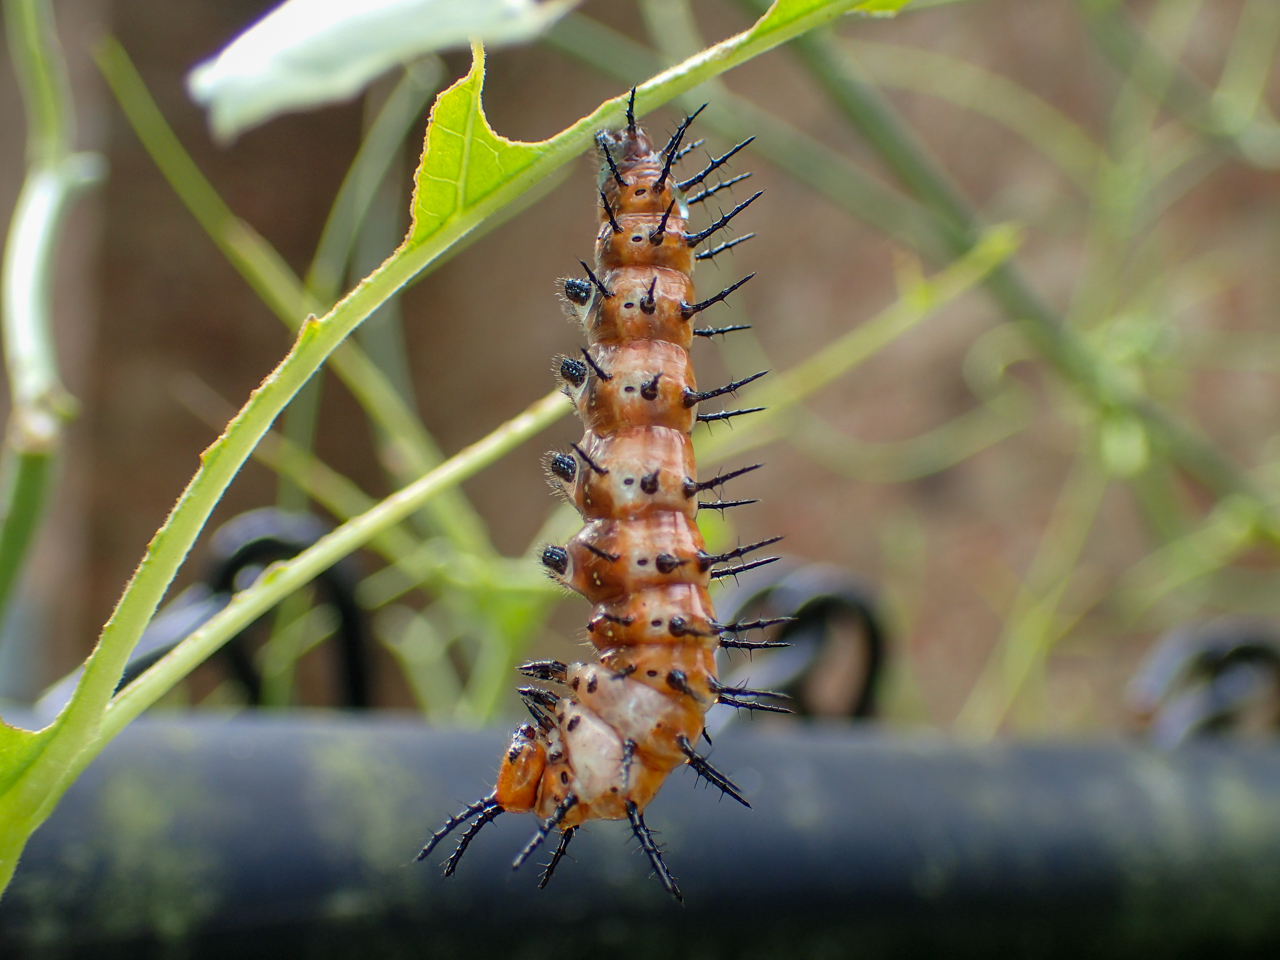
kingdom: Animalia
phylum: Arthropoda
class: Insecta
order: Lepidoptera
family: Nymphalidae
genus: Dione
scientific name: Dione vanillae
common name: Gulf fritillary
